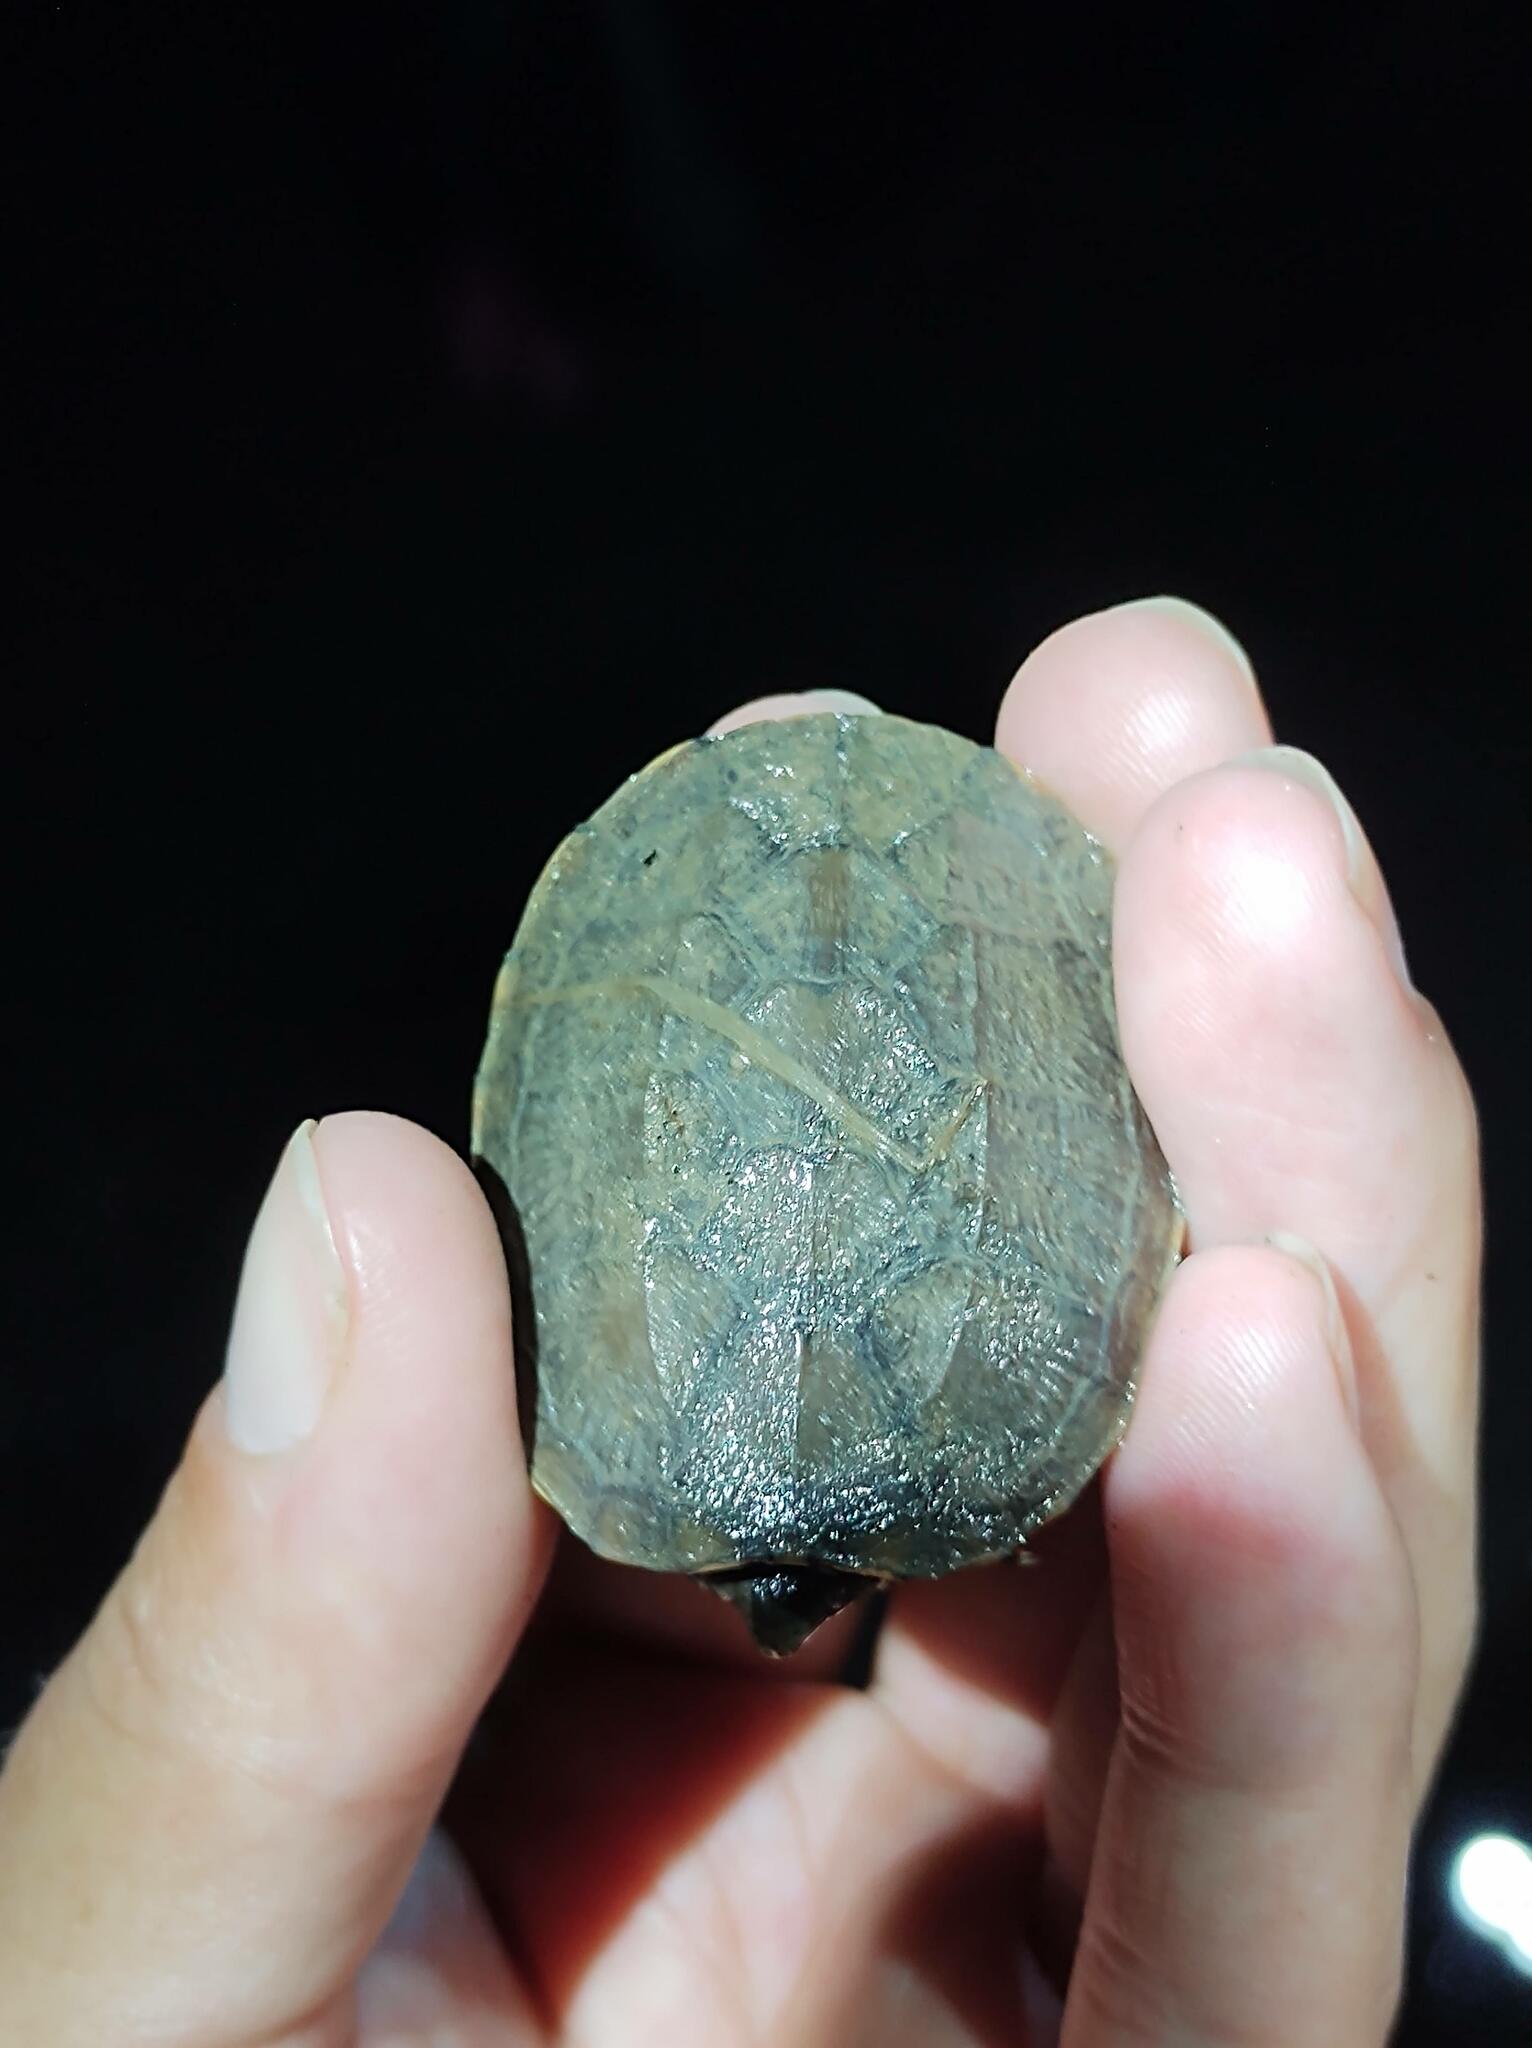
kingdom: Animalia
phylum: Chordata
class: Testudines
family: Kinosternidae
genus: Kinosternon
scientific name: Kinosternon oaxacae
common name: Oaxaca mud turtle
